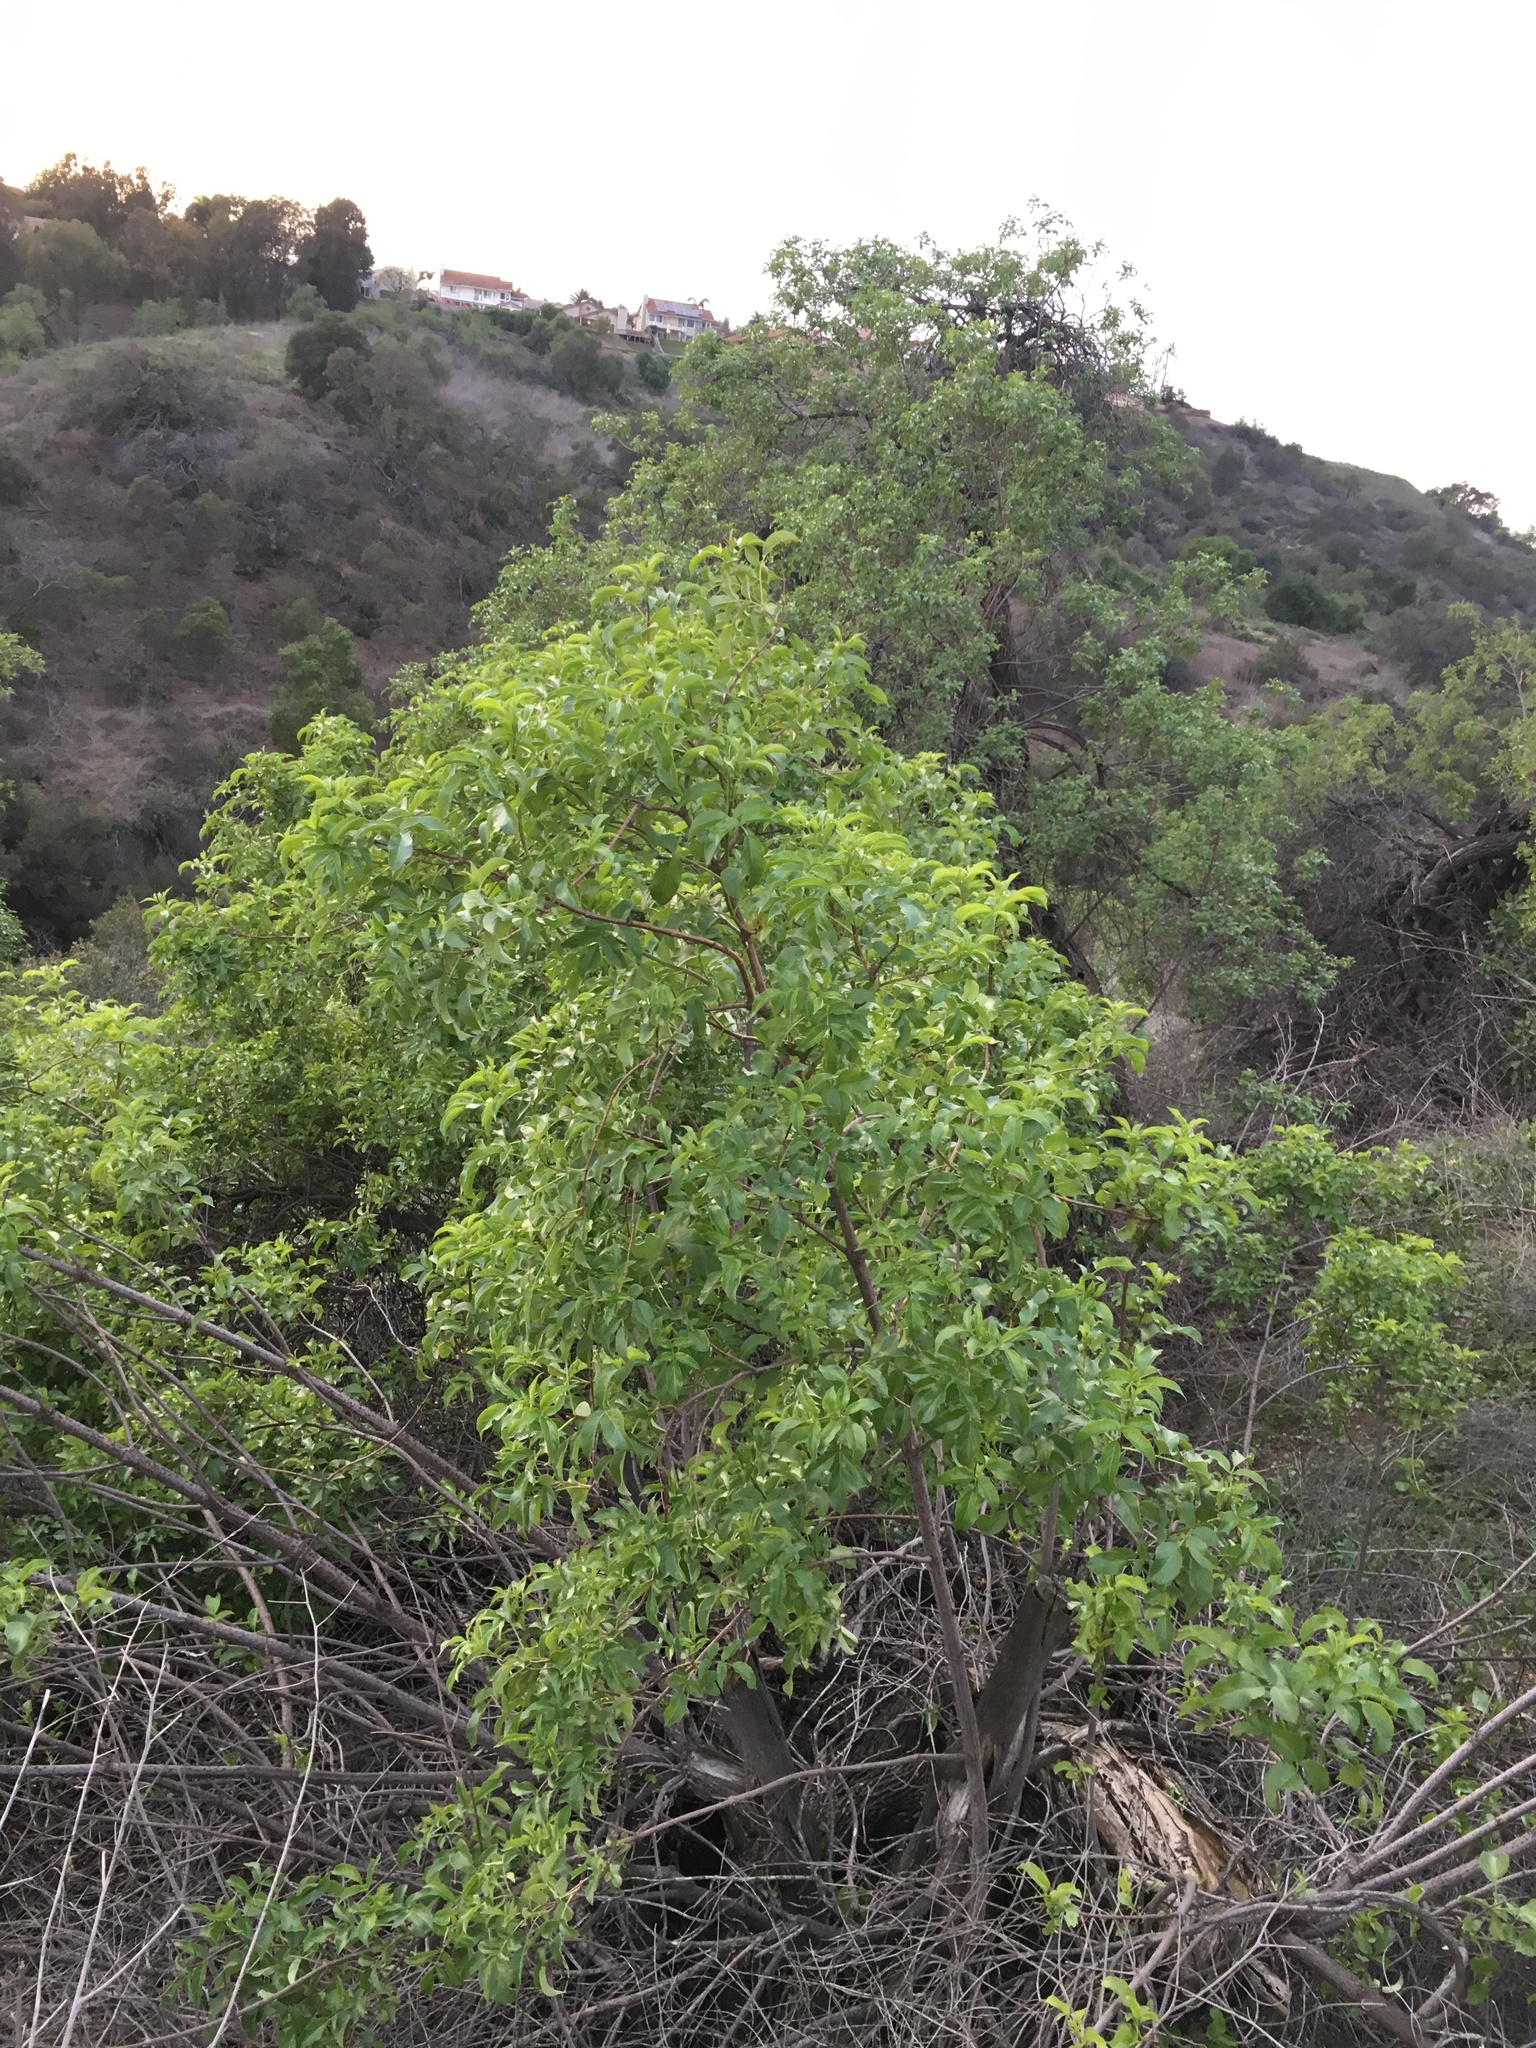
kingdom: Plantae
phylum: Tracheophyta
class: Magnoliopsida
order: Dipsacales
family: Viburnaceae
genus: Sambucus
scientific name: Sambucus cerulea
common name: Blue elder
